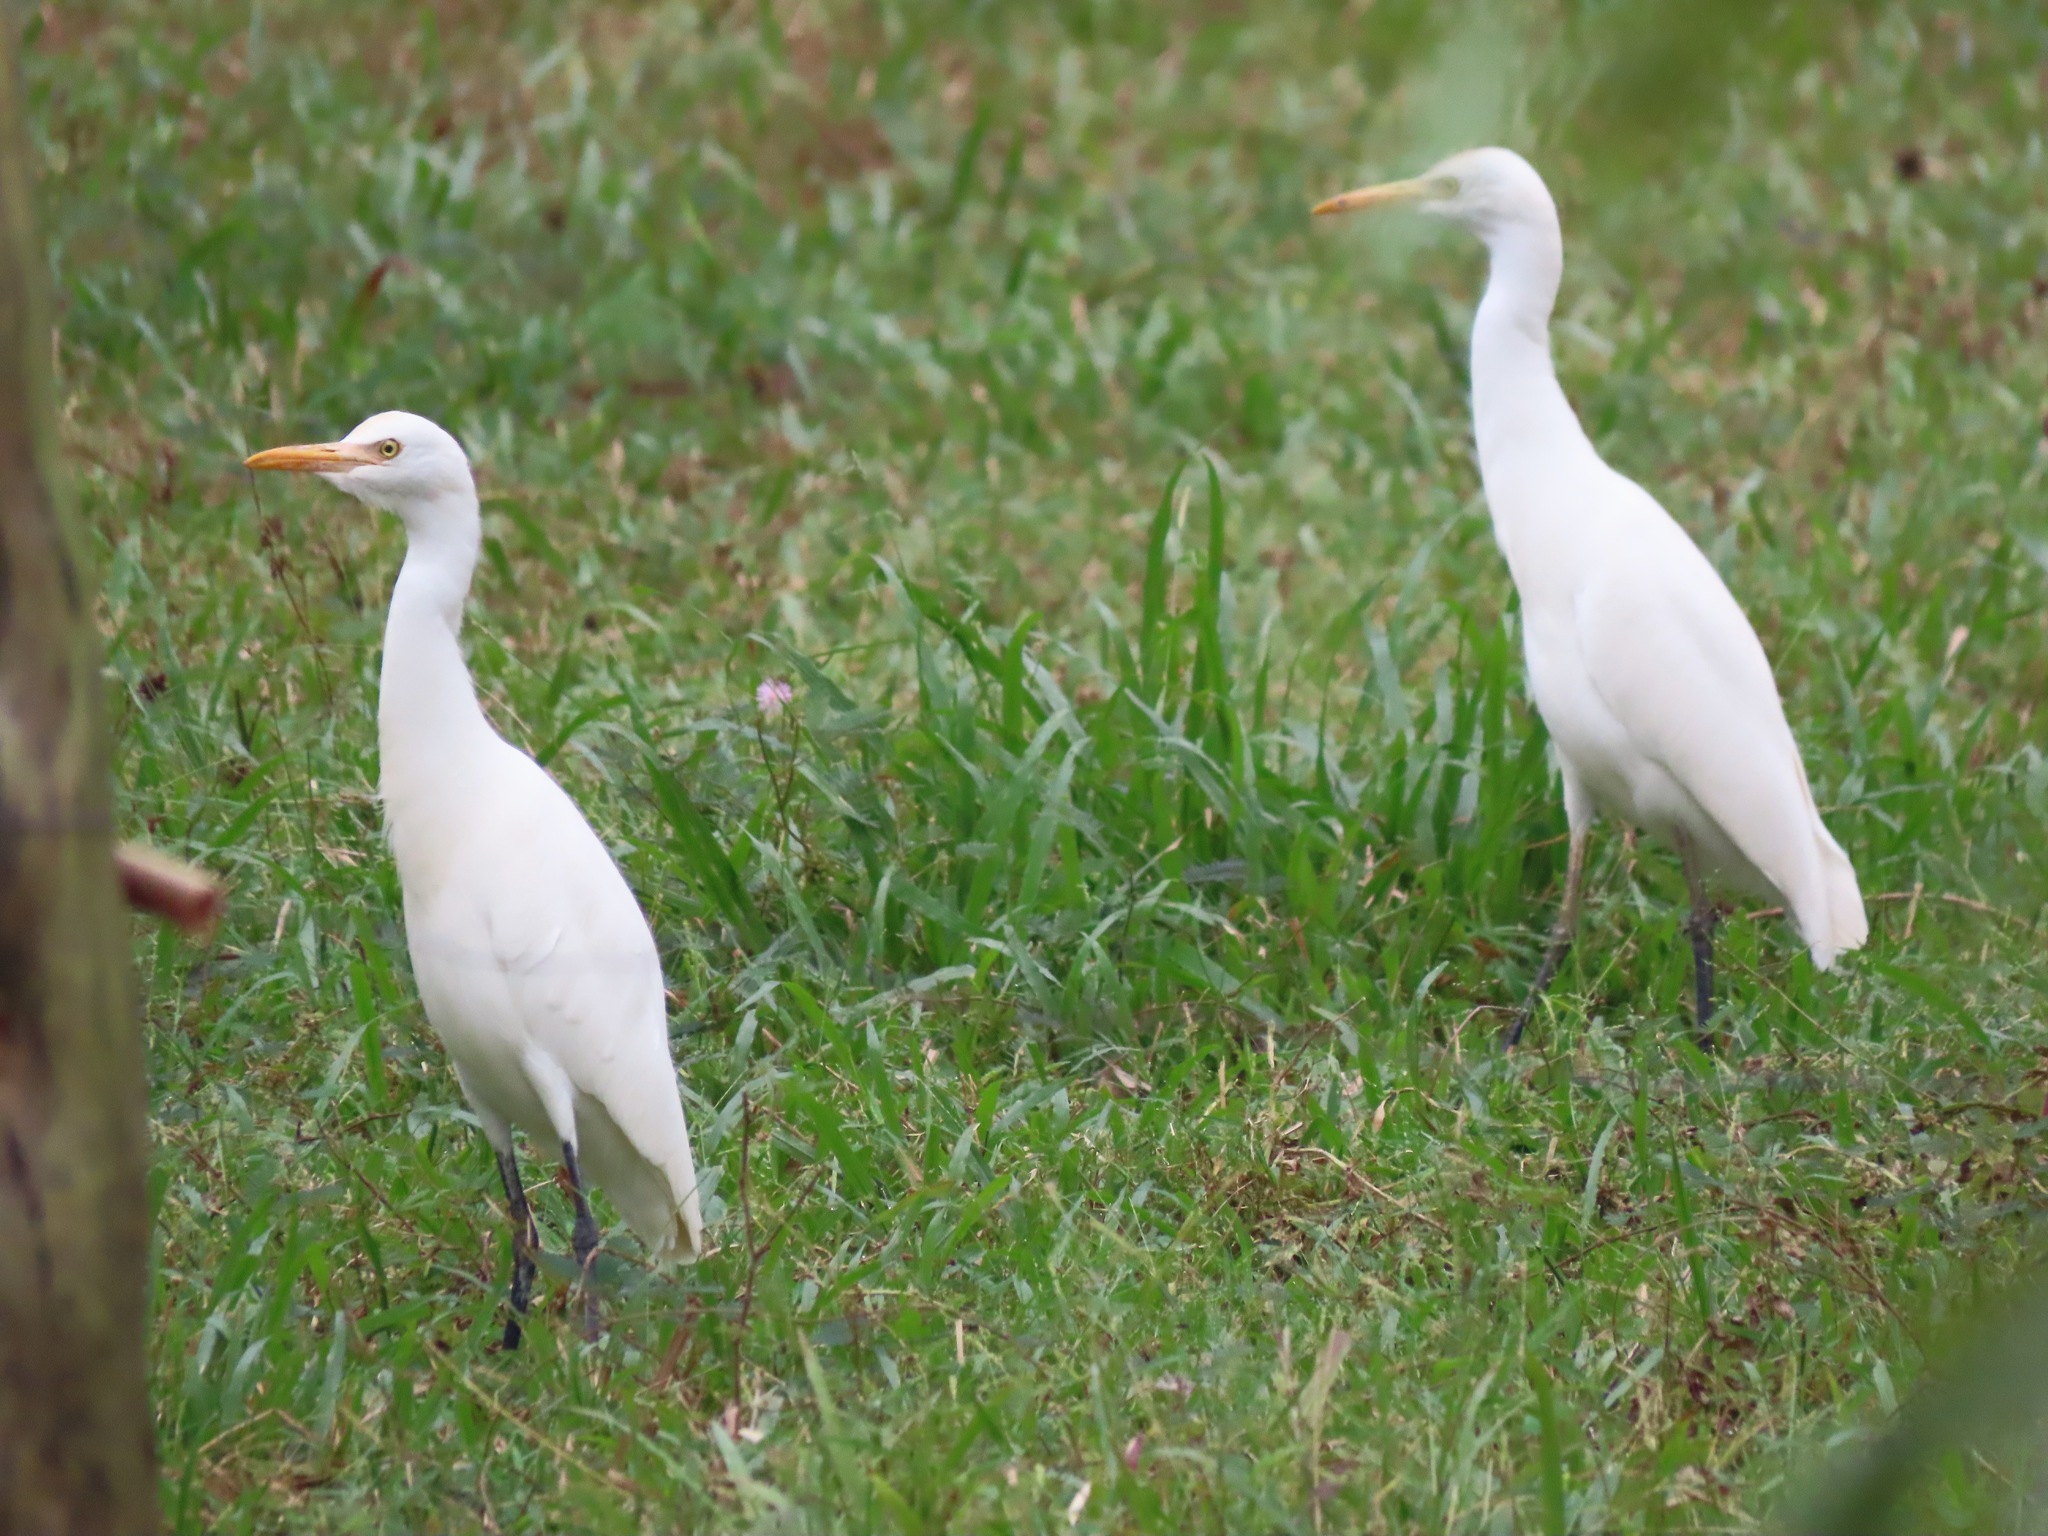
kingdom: Animalia
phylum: Chordata
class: Aves
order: Pelecaniformes
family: Ardeidae
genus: Bubulcus
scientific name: Bubulcus coromandus
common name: Eastern cattle egret
